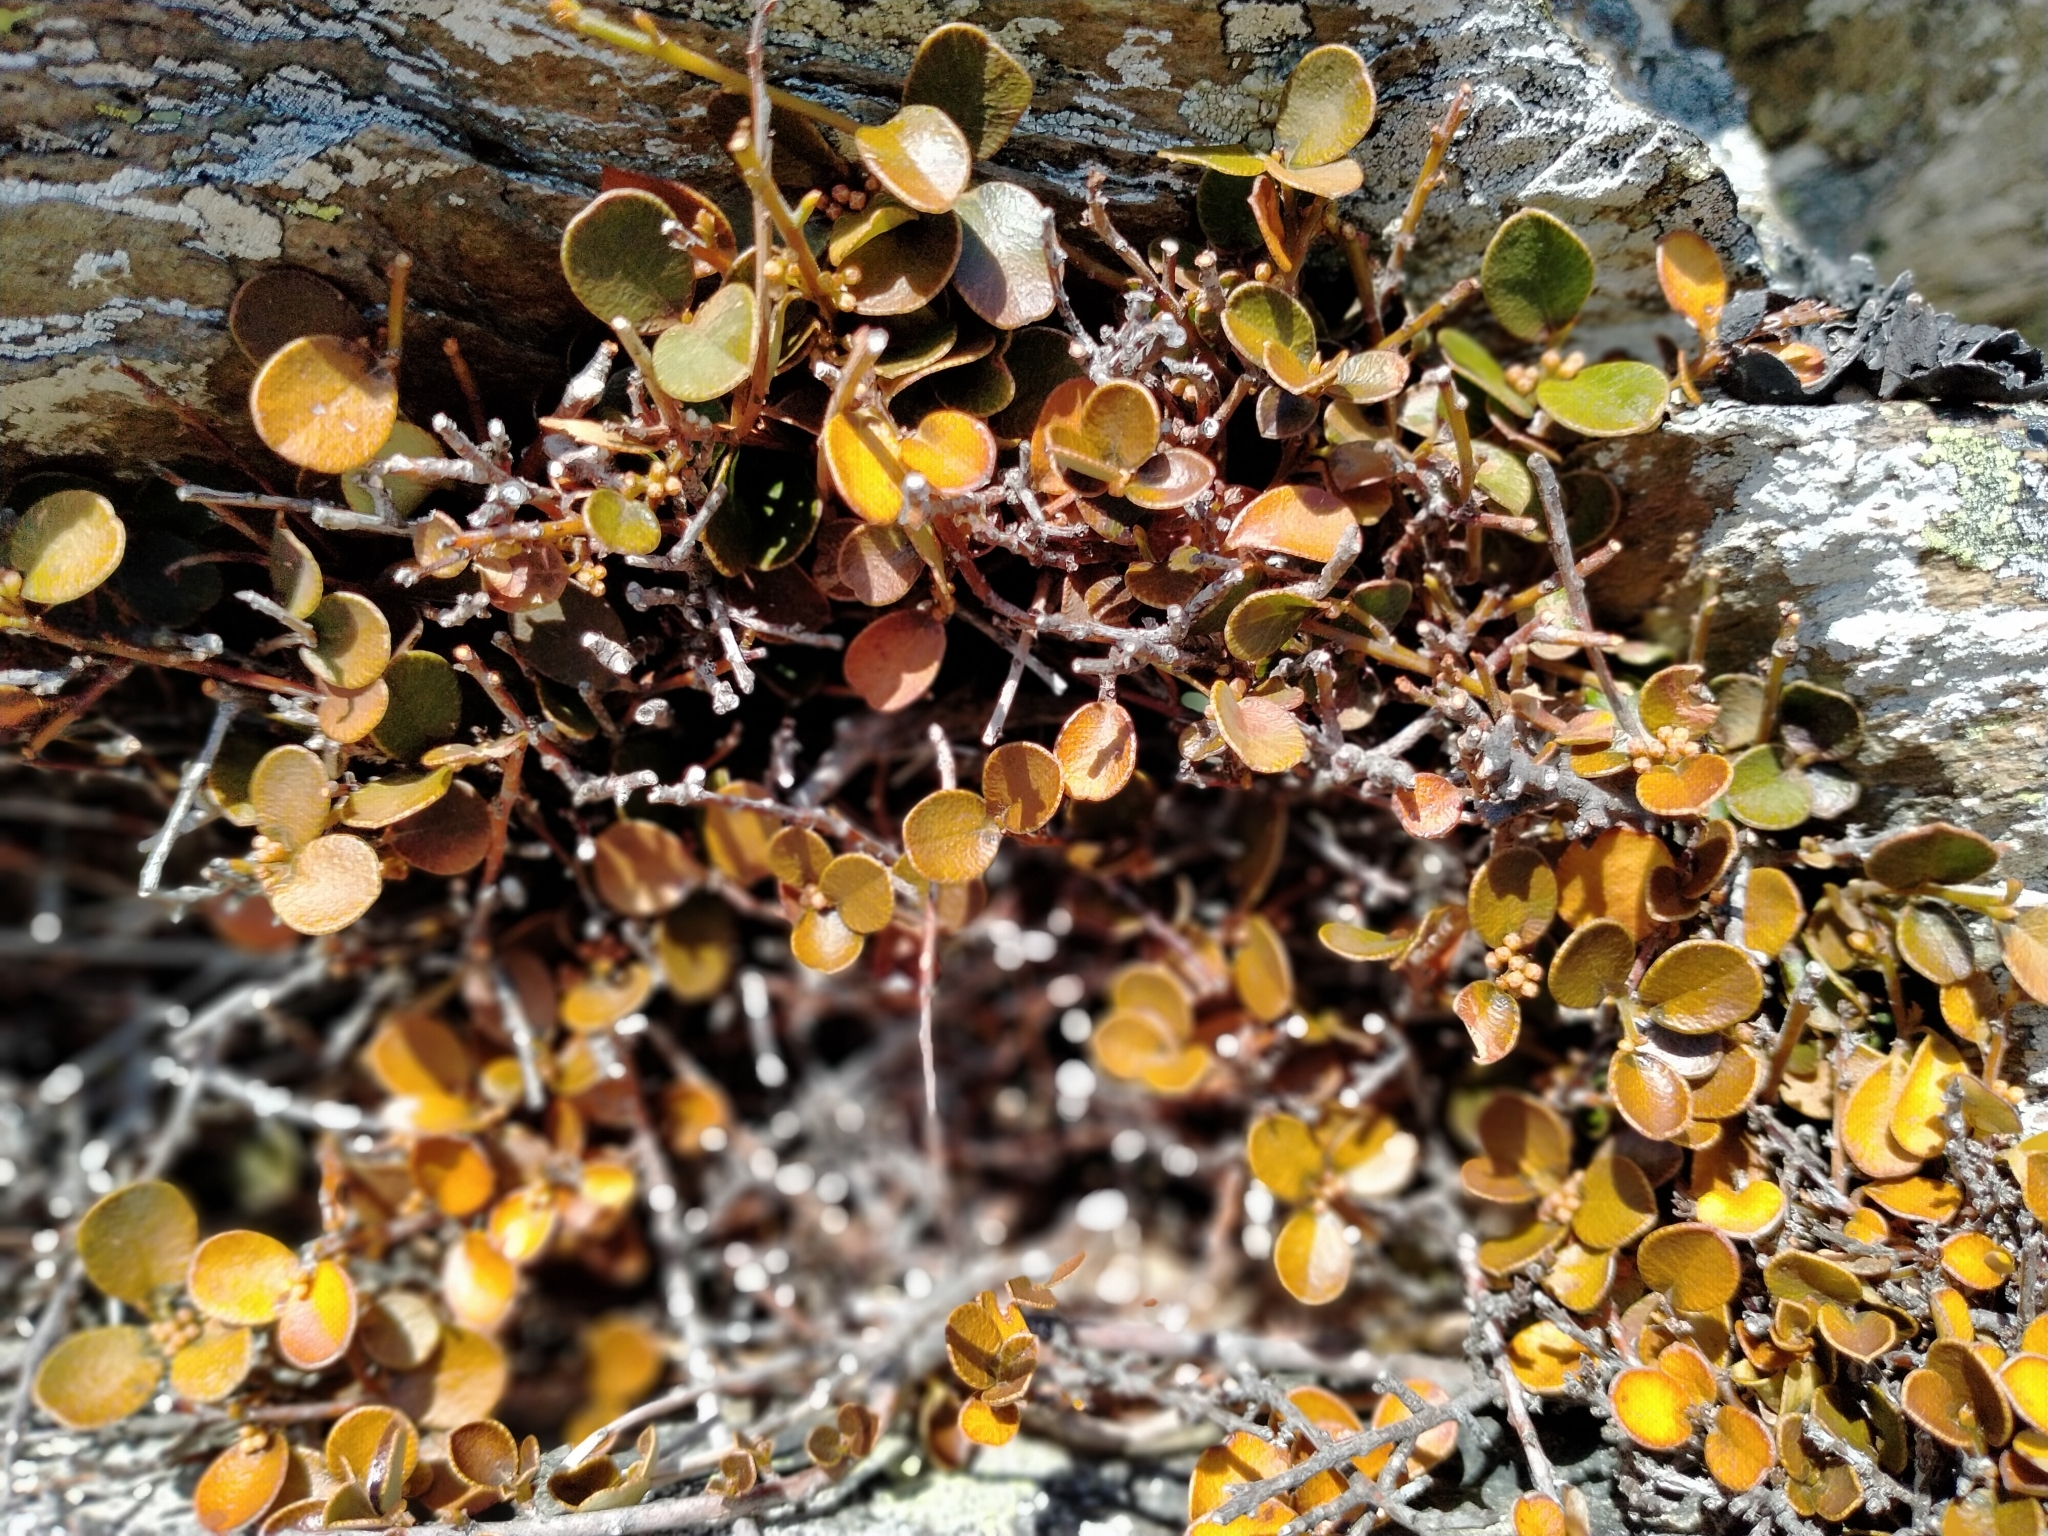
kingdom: Plantae
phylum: Tracheophyta
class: Magnoliopsida
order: Ericales
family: Primulaceae
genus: Myrsine
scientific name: Myrsine nummularia
